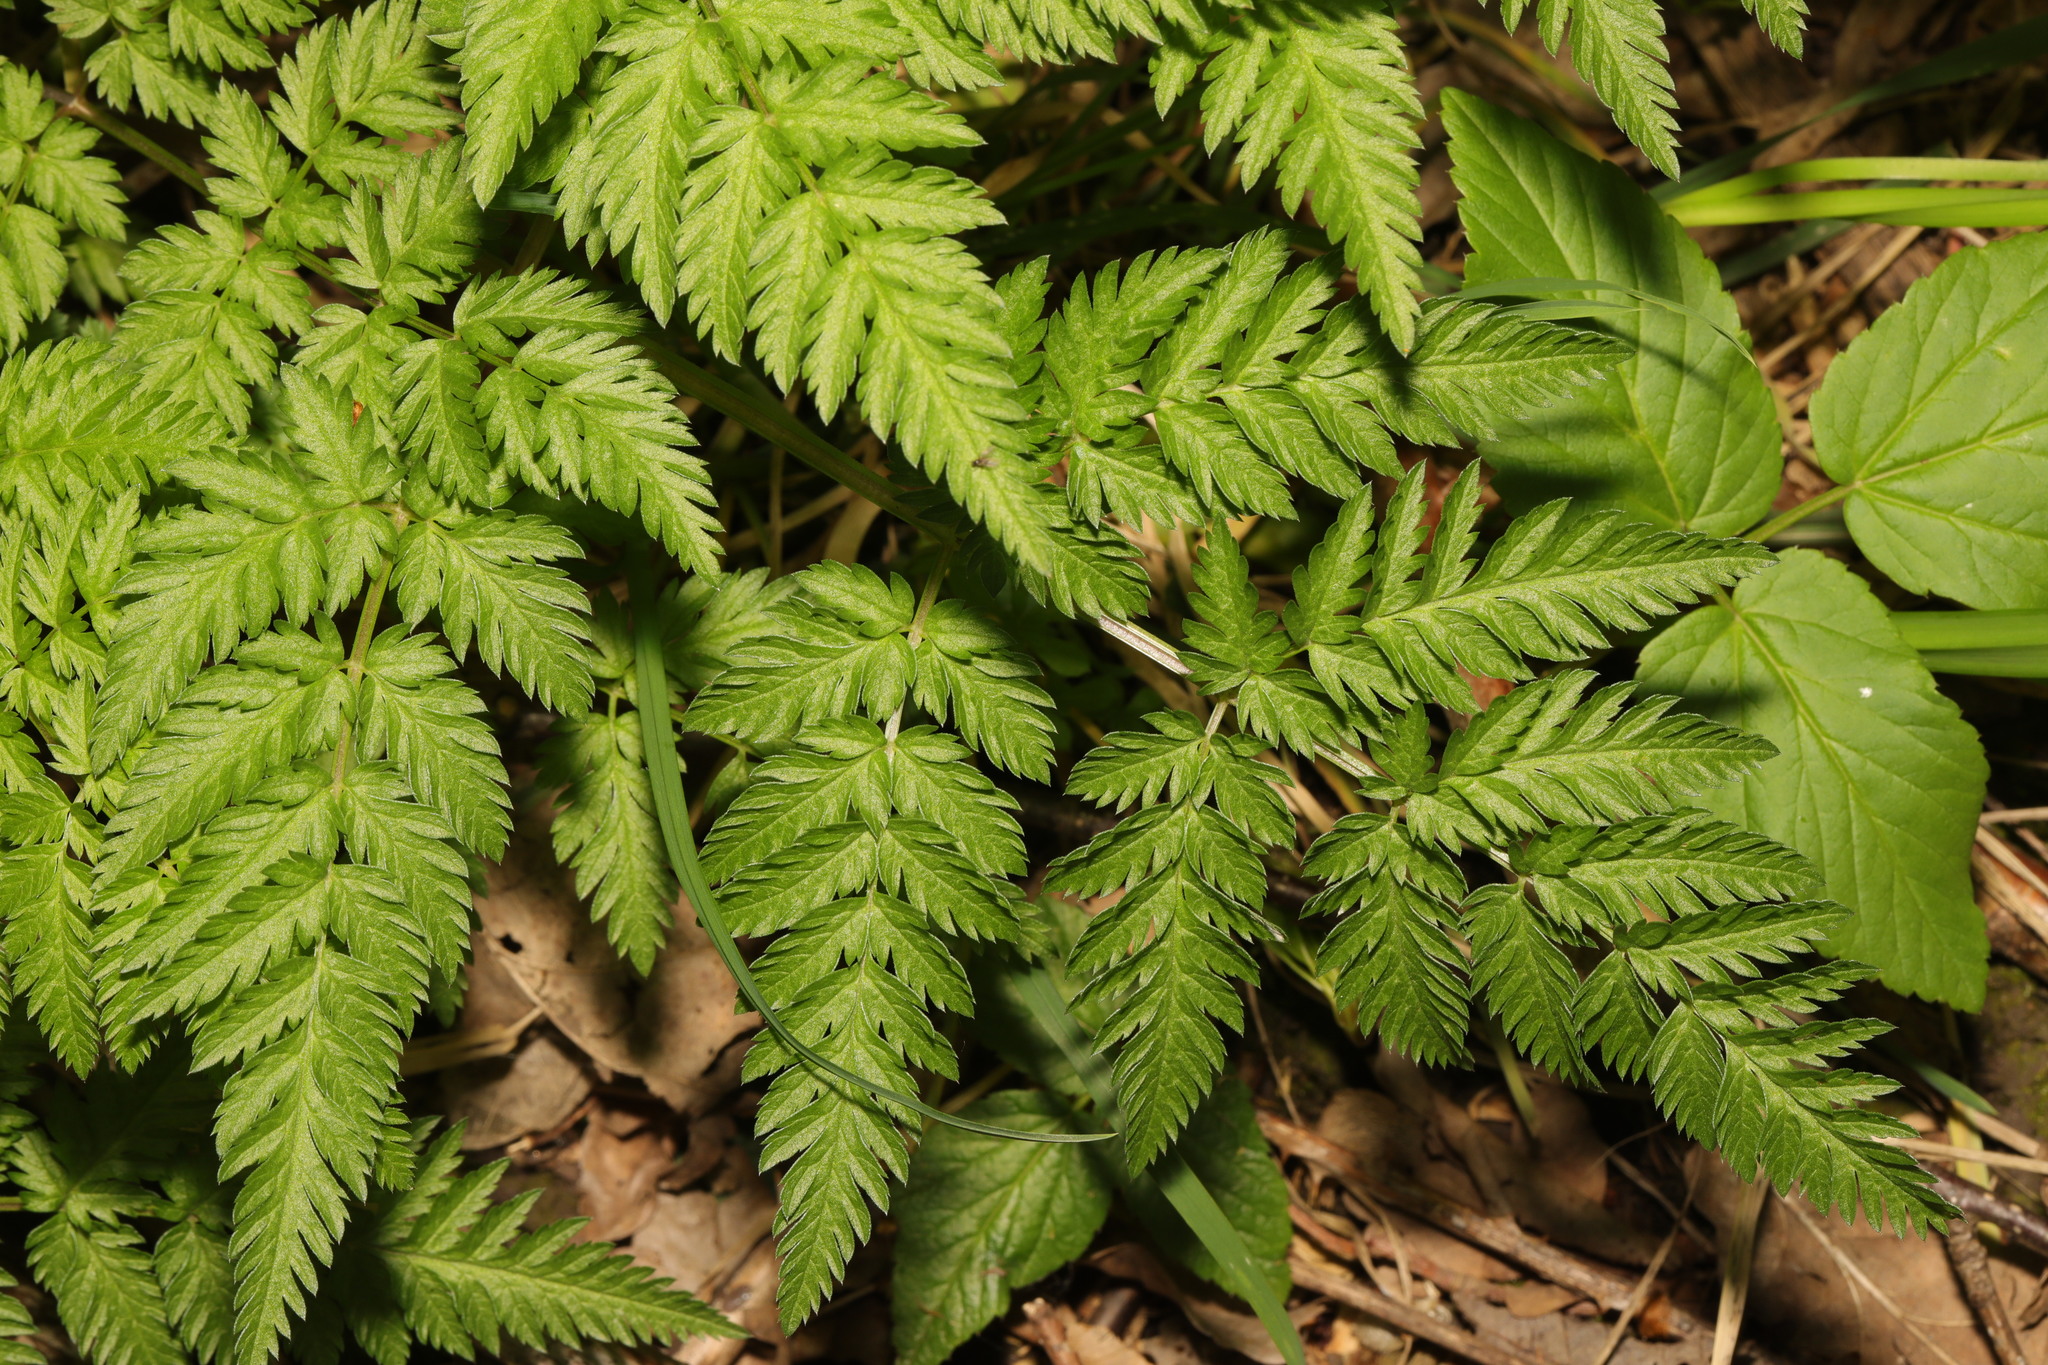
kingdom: Plantae
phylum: Tracheophyta
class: Magnoliopsida
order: Apiales
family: Apiaceae
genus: Anthriscus
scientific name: Anthriscus sylvestris
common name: Cow parsley
